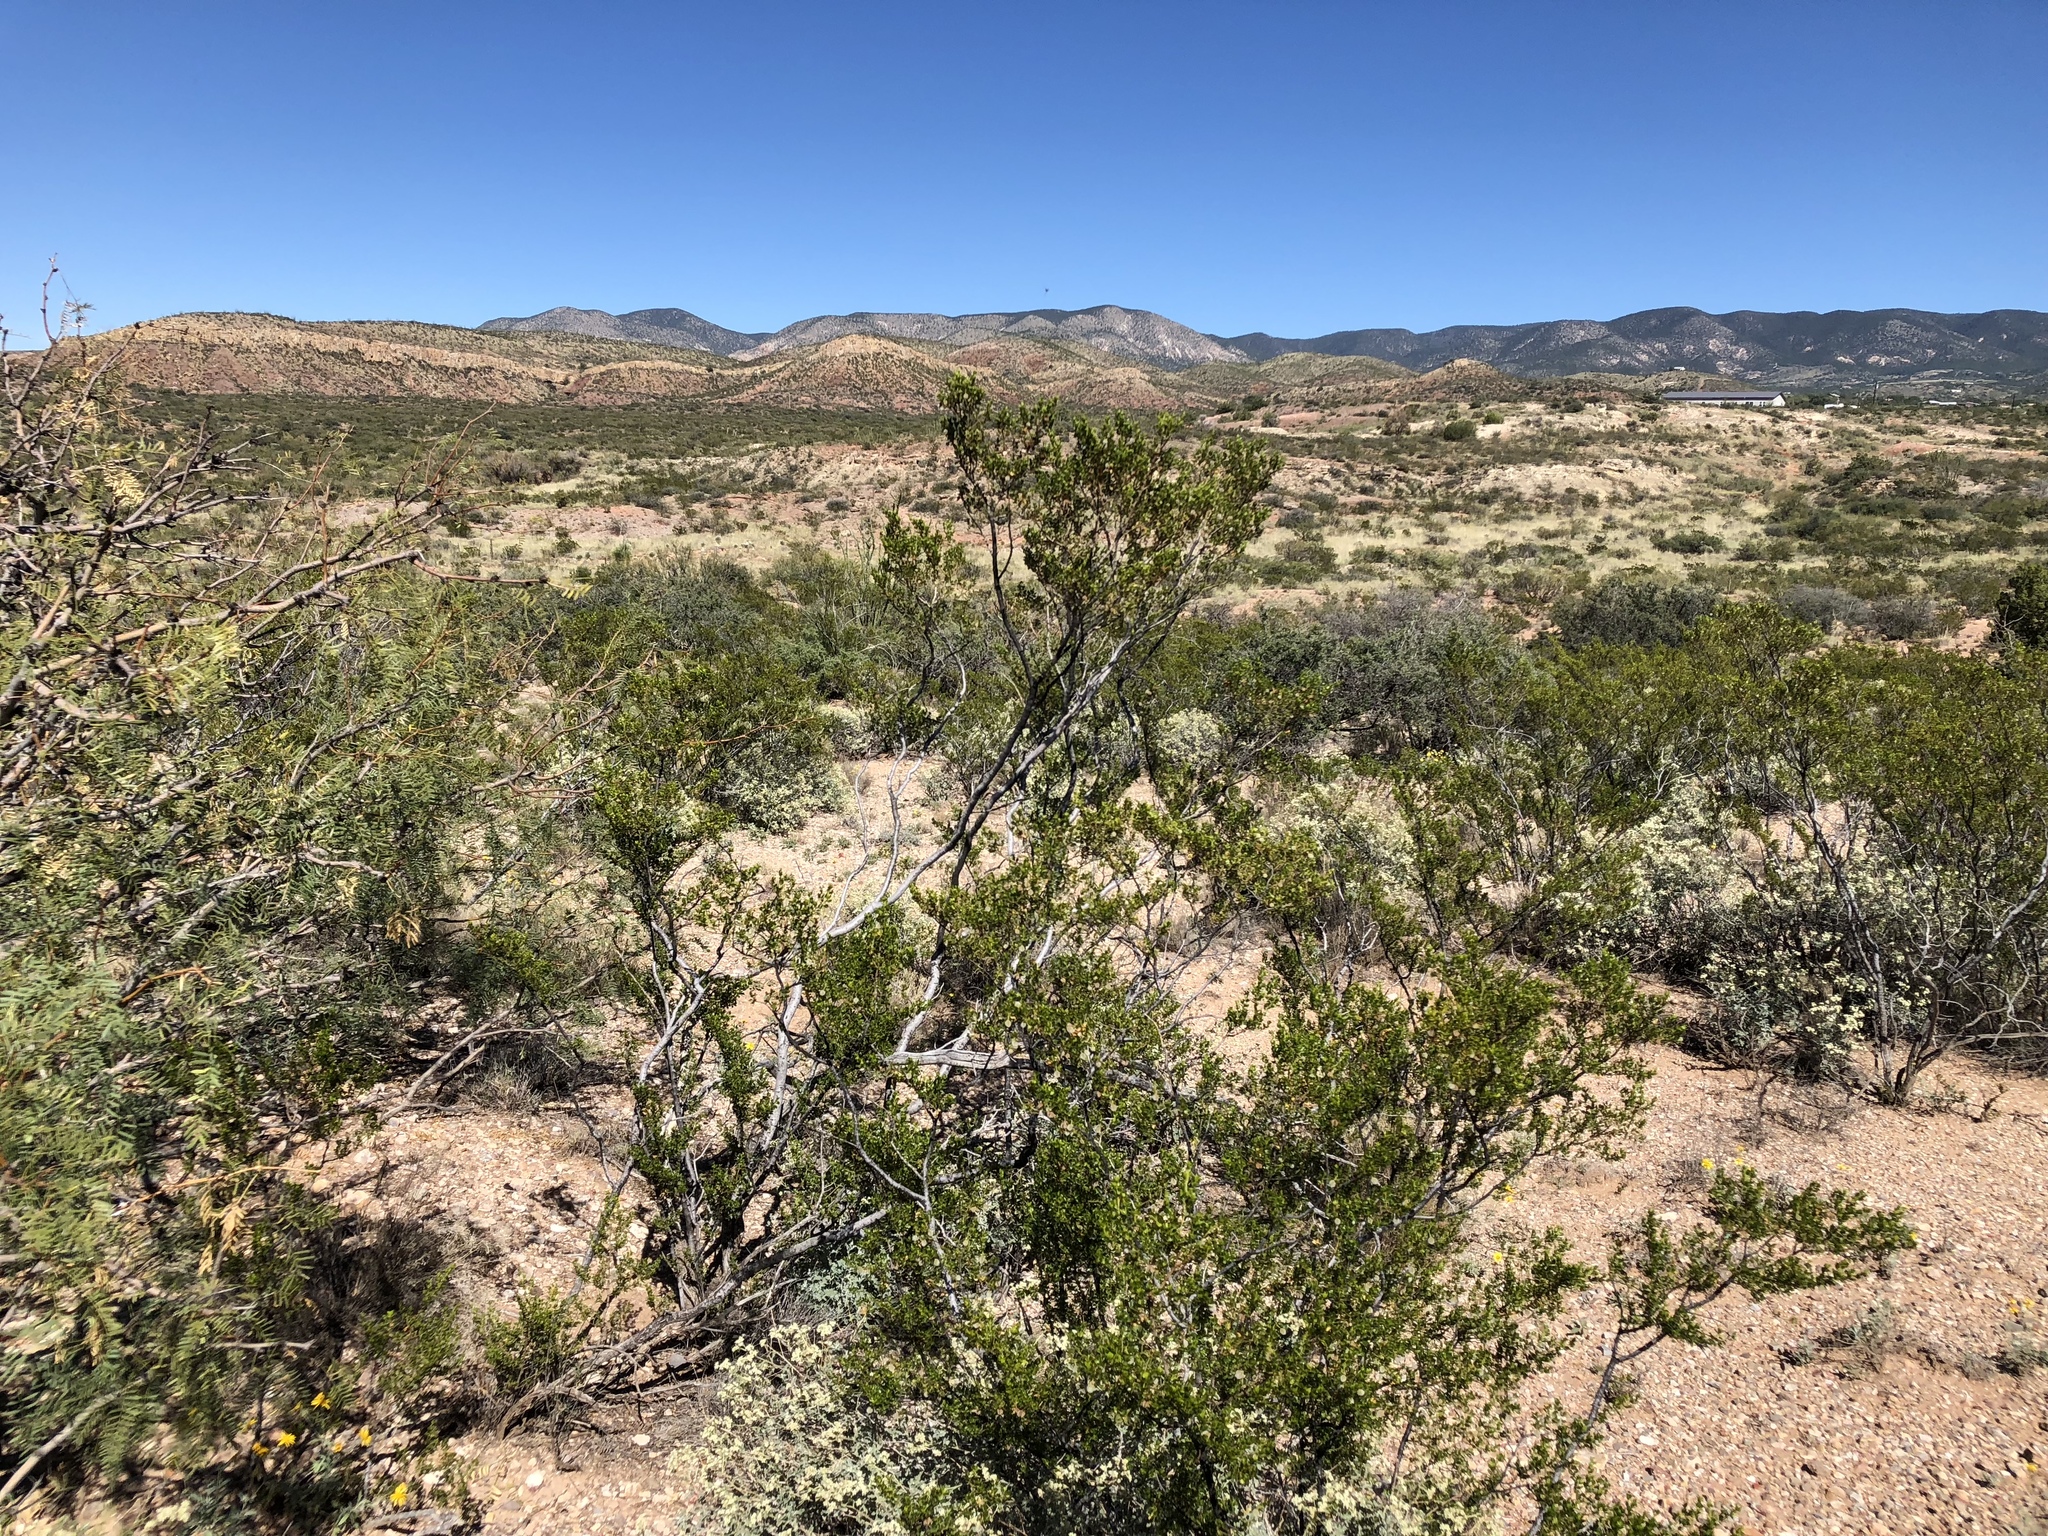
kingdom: Plantae
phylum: Tracheophyta
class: Magnoliopsida
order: Zygophyllales
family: Zygophyllaceae
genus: Larrea
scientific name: Larrea tridentata
